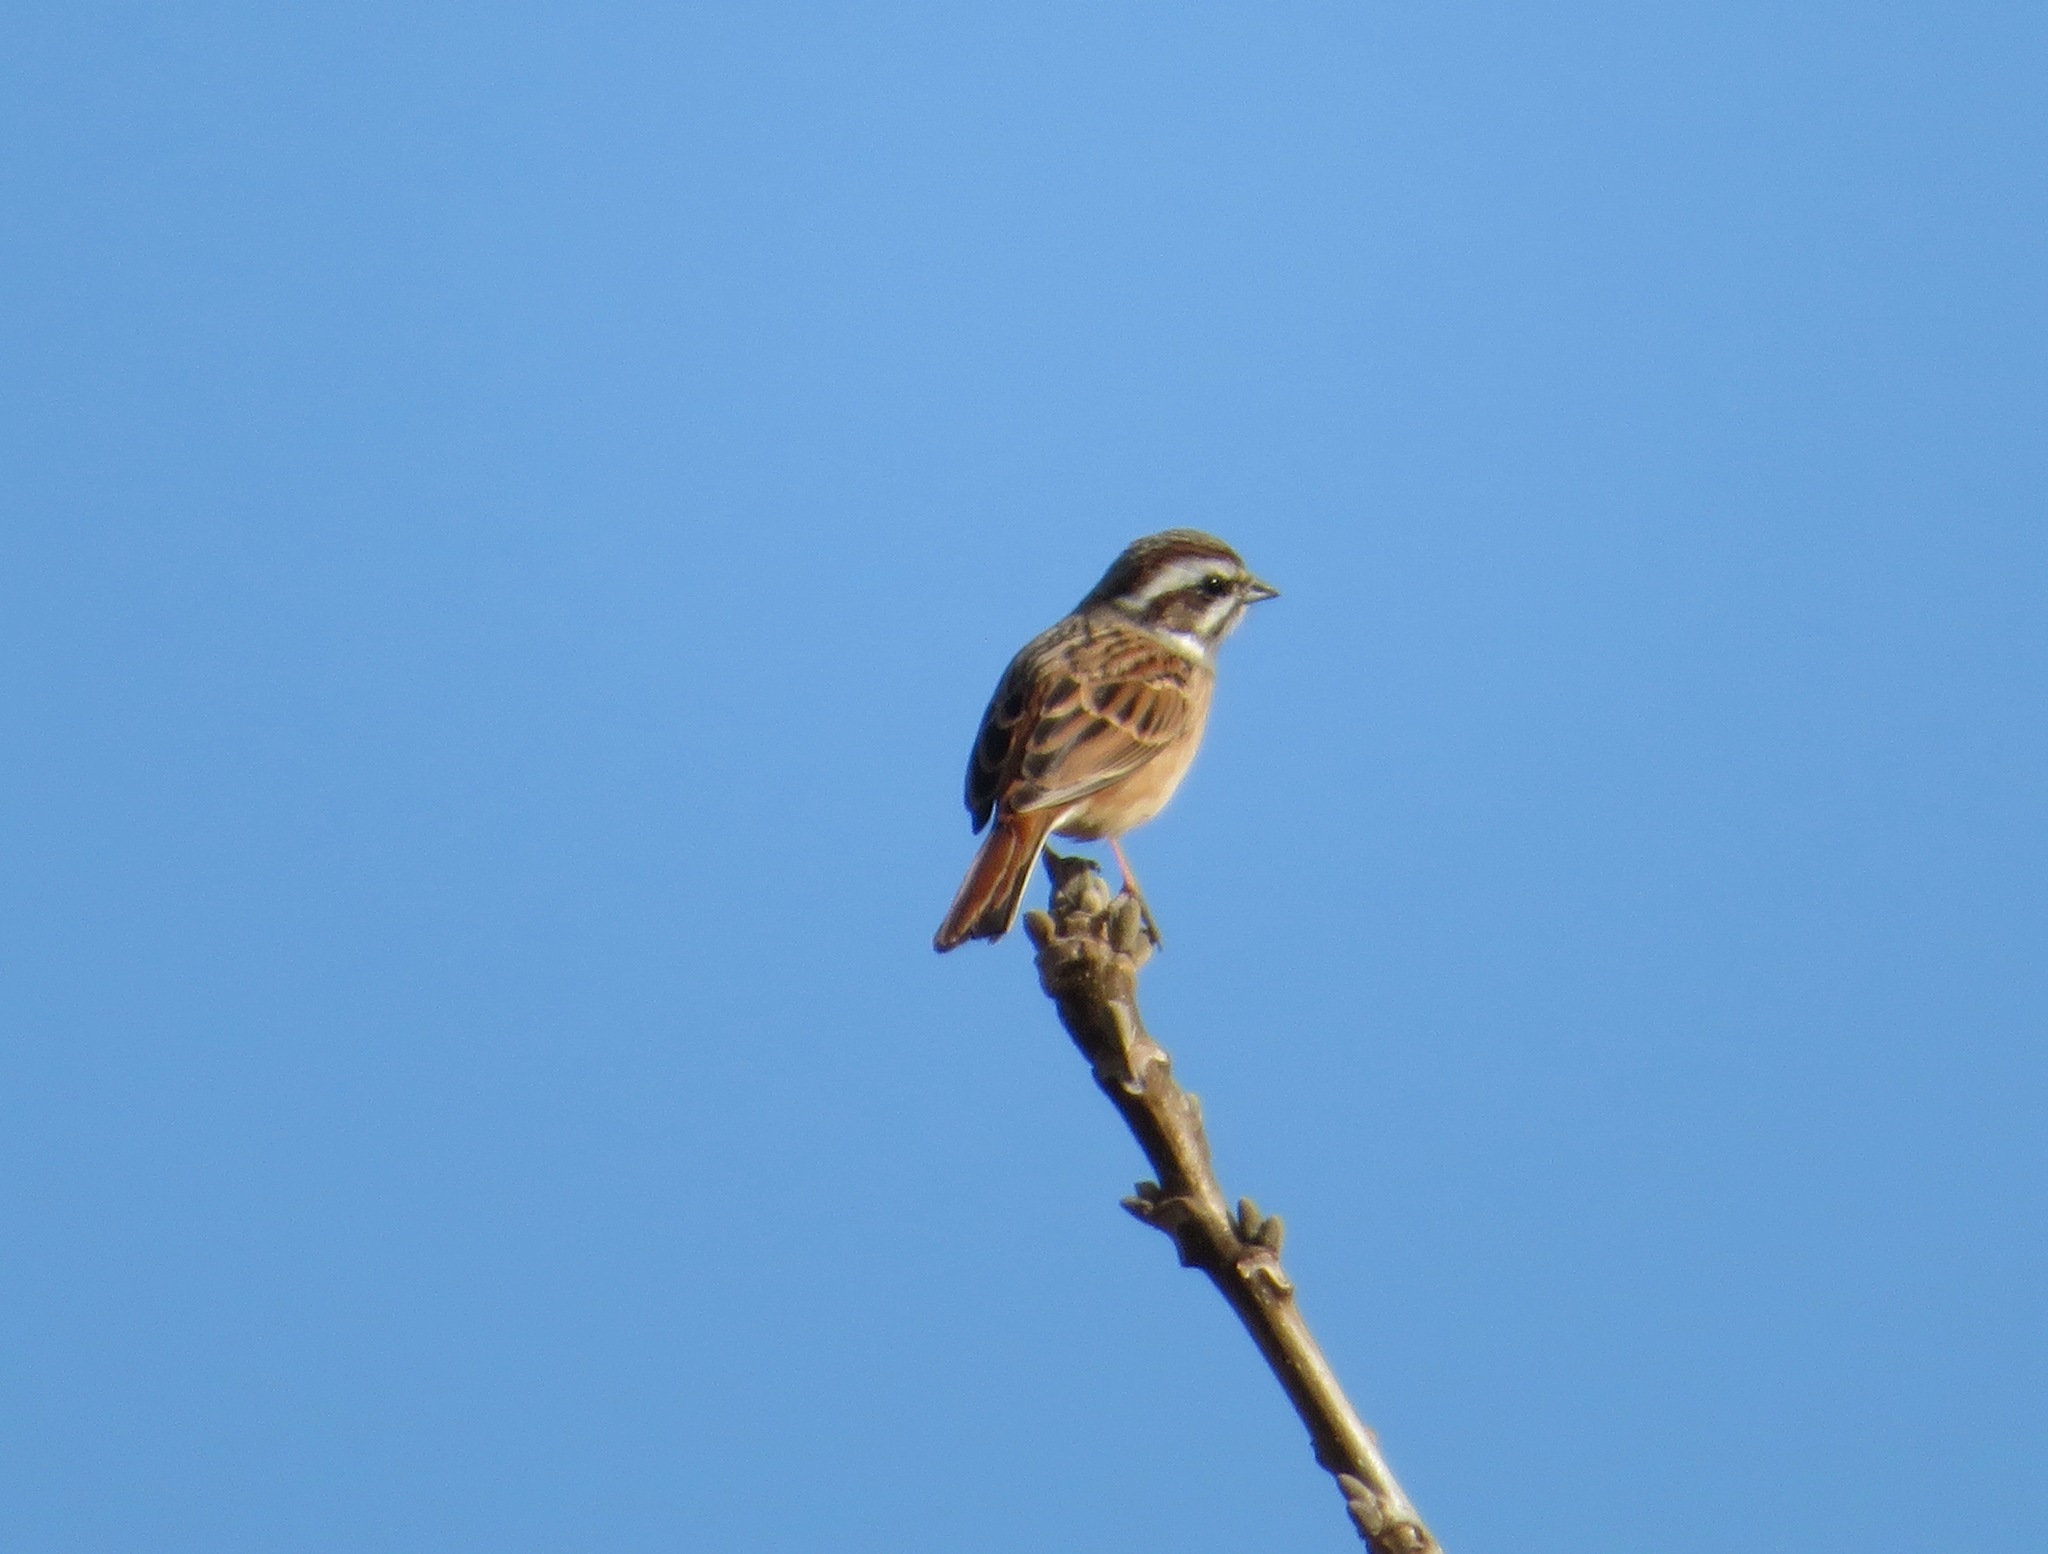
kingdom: Animalia
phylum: Chordata
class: Aves
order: Passeriformes
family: Emberizidae
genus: Emberiza
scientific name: Emberiza cioides
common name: Meadow bunting
